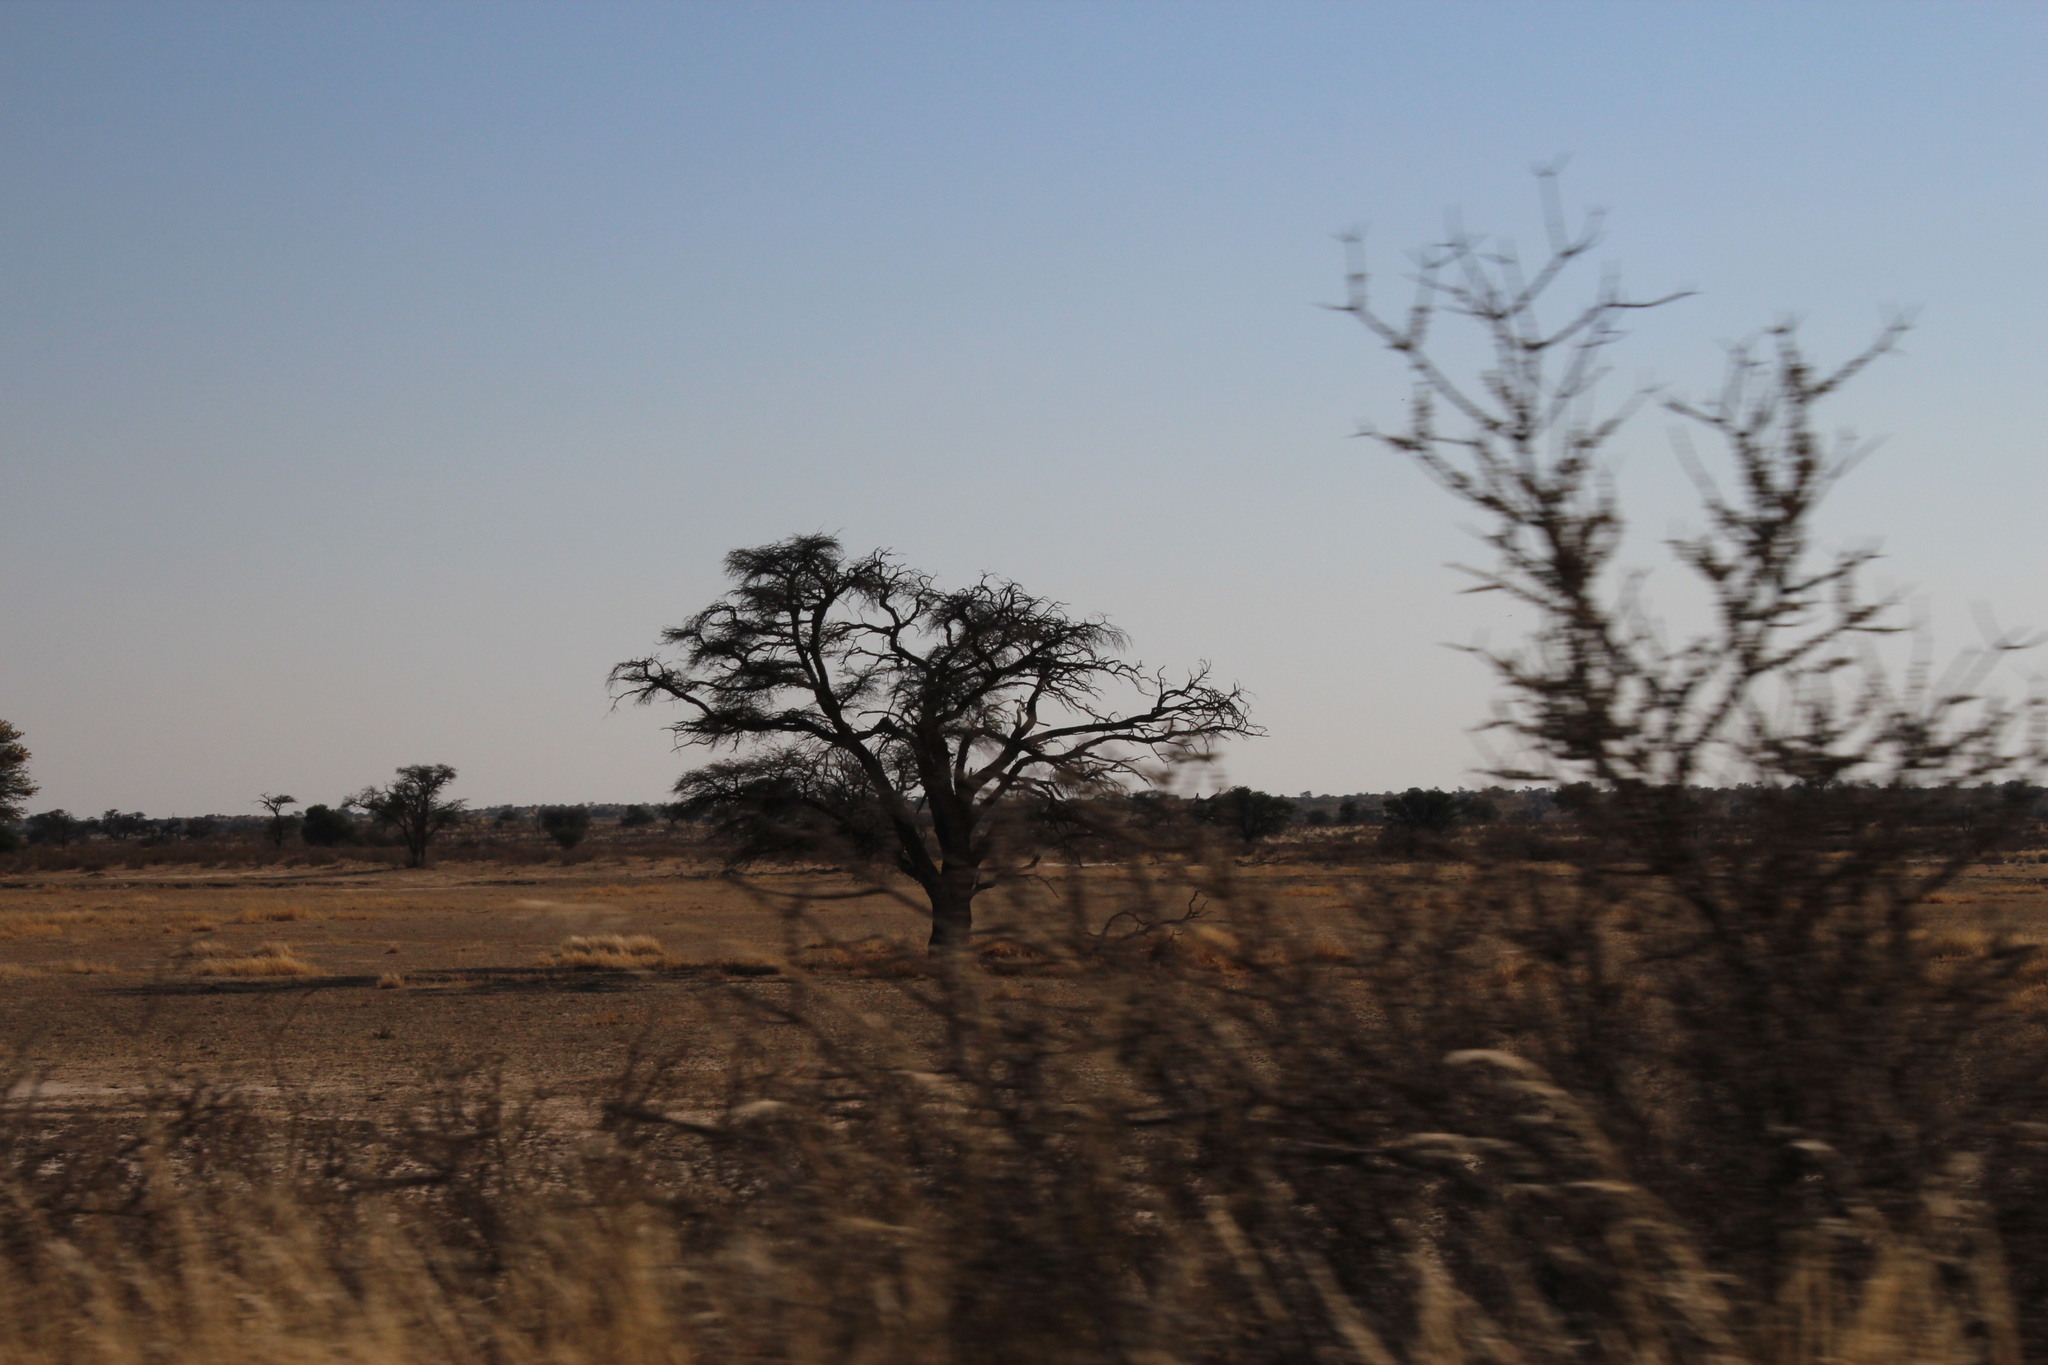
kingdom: Plantae
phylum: Tracheophyta
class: Magnoliopsida
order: Fabales
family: Fabaceae
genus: Vachellia
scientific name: Vachellia erioloba
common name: Camel thorn
